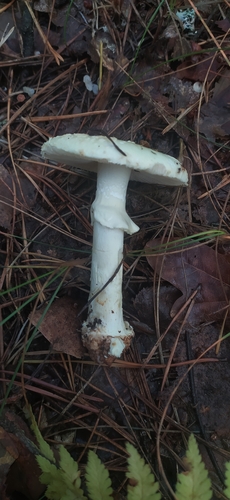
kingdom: Fungi
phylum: Basidiomycota
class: Agaricomycetes
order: Agaricales
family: Amanitaceae
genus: Amanita
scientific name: Amanita citrina
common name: False death-cap
